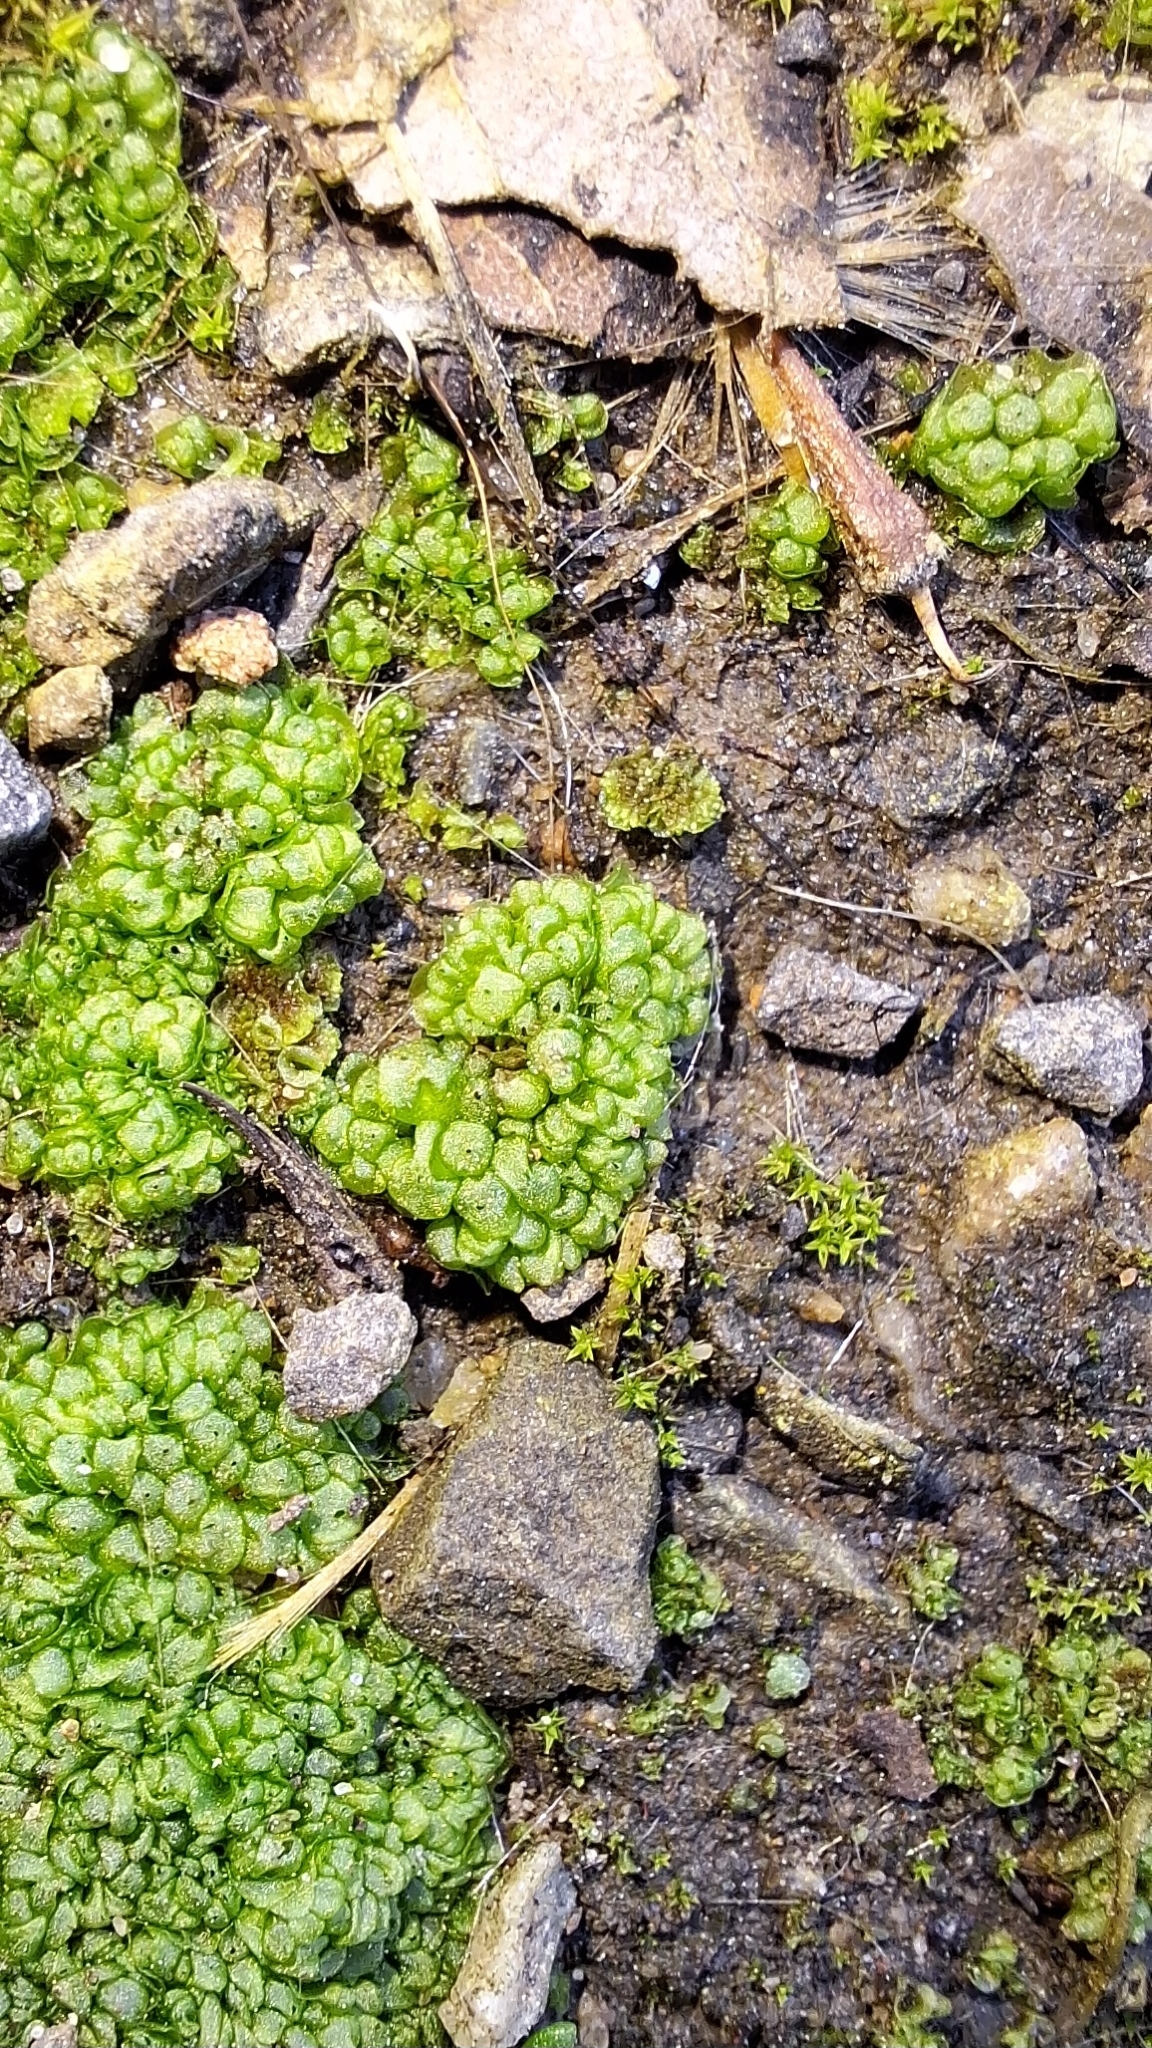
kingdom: Plantae
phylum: Marchantiophyta
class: Marchantiopsida
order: Sphaerocarpales
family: Sphaerocarpaceae
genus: Sphaerocarpos
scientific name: Sphaerocarpos texanus
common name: Texas balloonwort
